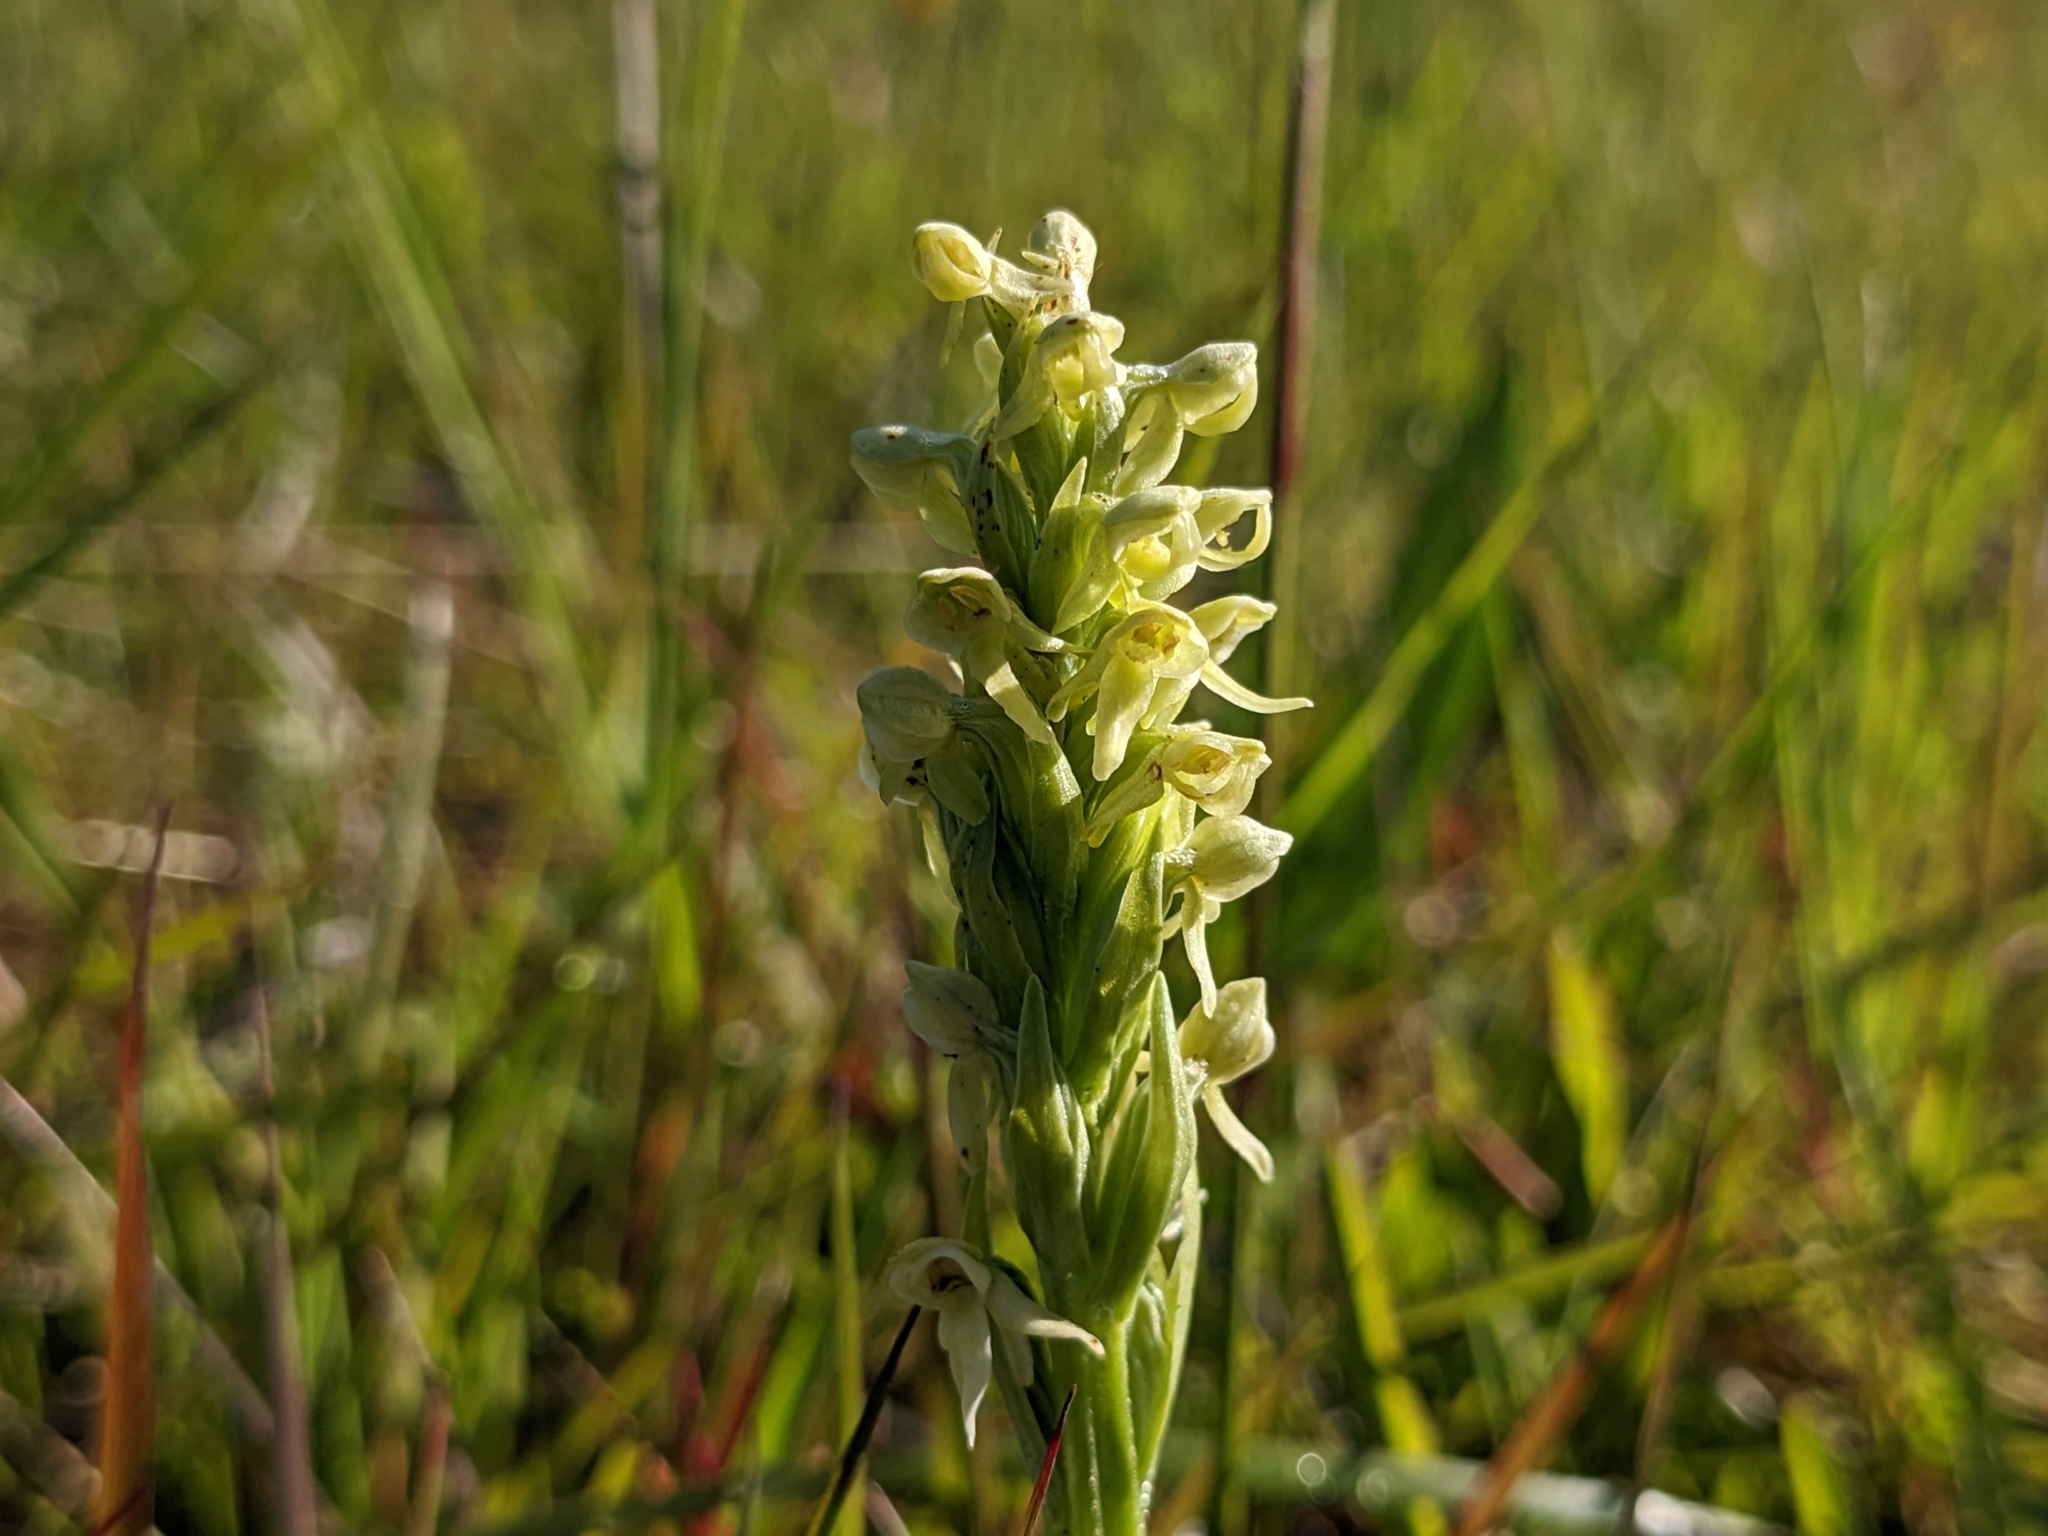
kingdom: Plantae
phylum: Tracheophyta
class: Liliopsida
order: Asparagales
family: Orchidaceae
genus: Platanthera
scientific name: Platanthera hyperborea
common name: Northern green orchid
